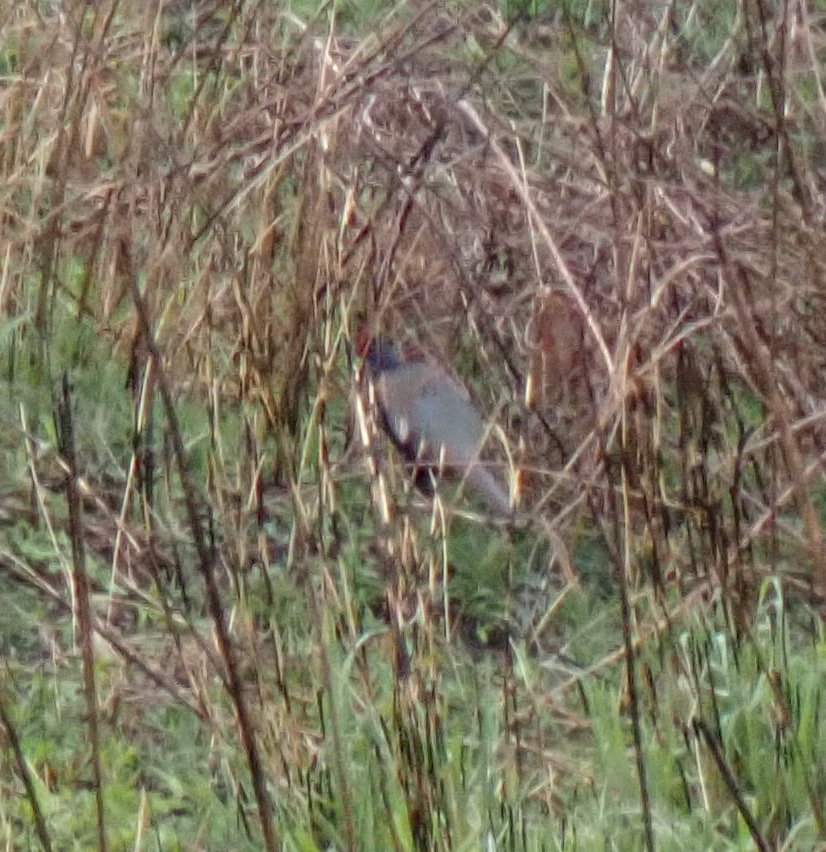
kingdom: Animalia
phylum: Chordata
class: Aves
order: Galliformes
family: Phasianidae
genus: Phasianus
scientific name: Phasianus versicolor
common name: Green pheasant
